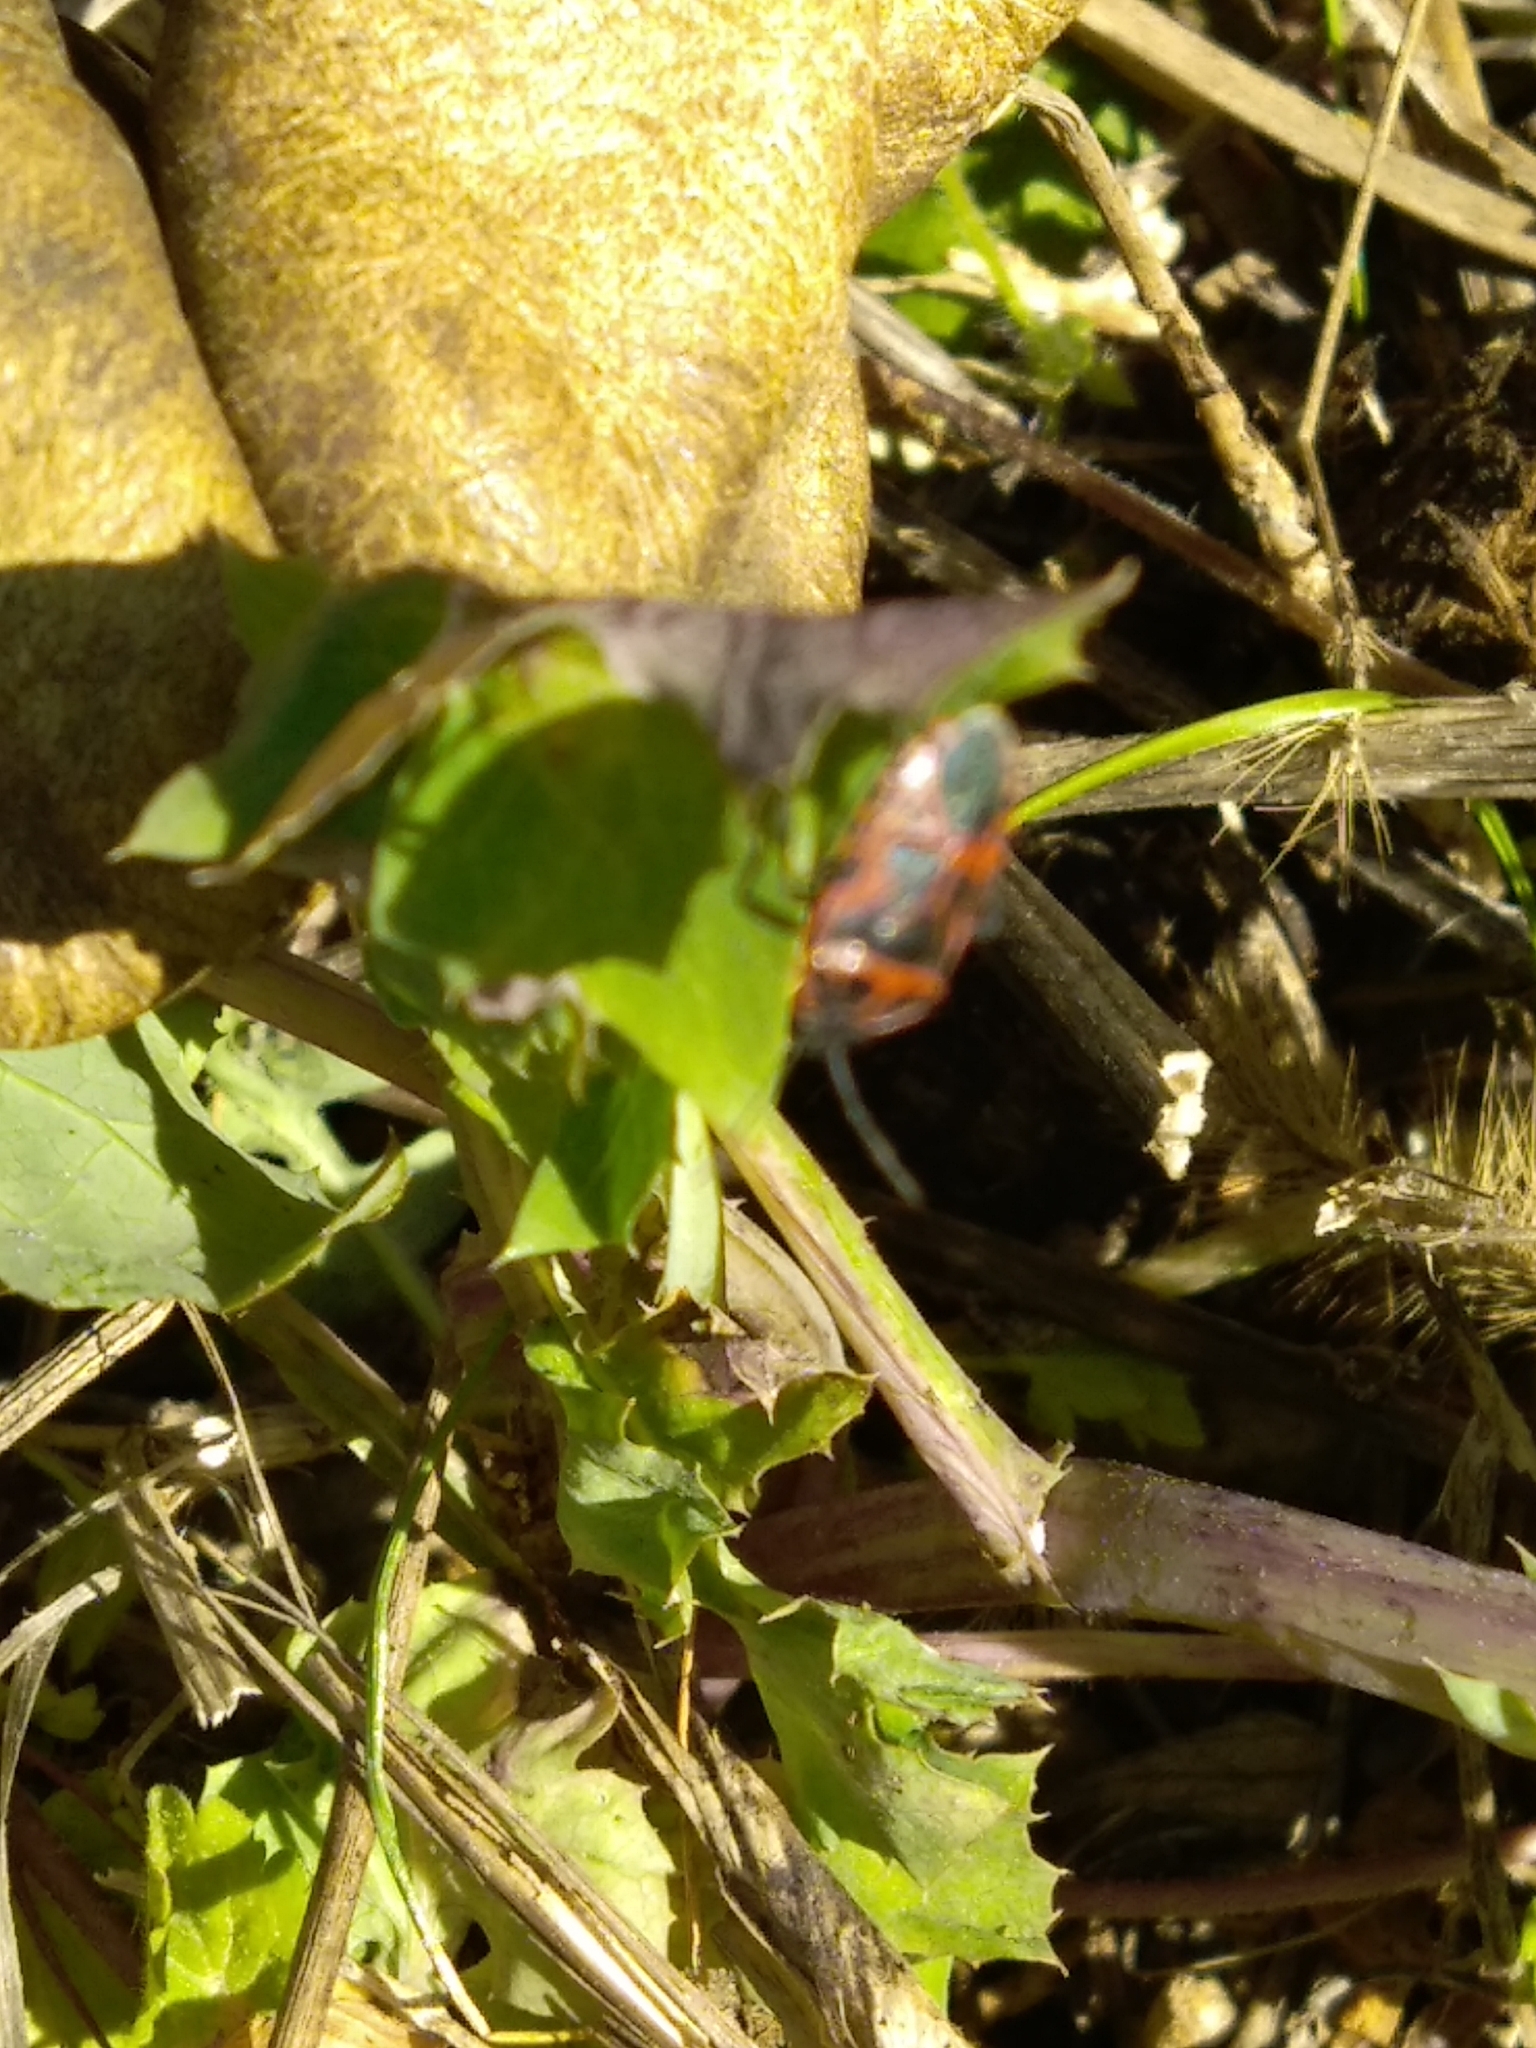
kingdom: Animalia
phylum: Arthropoda
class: Insecta
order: Hemiptera
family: Pentatomidae
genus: Eurydema
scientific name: Eurydema ventralis
